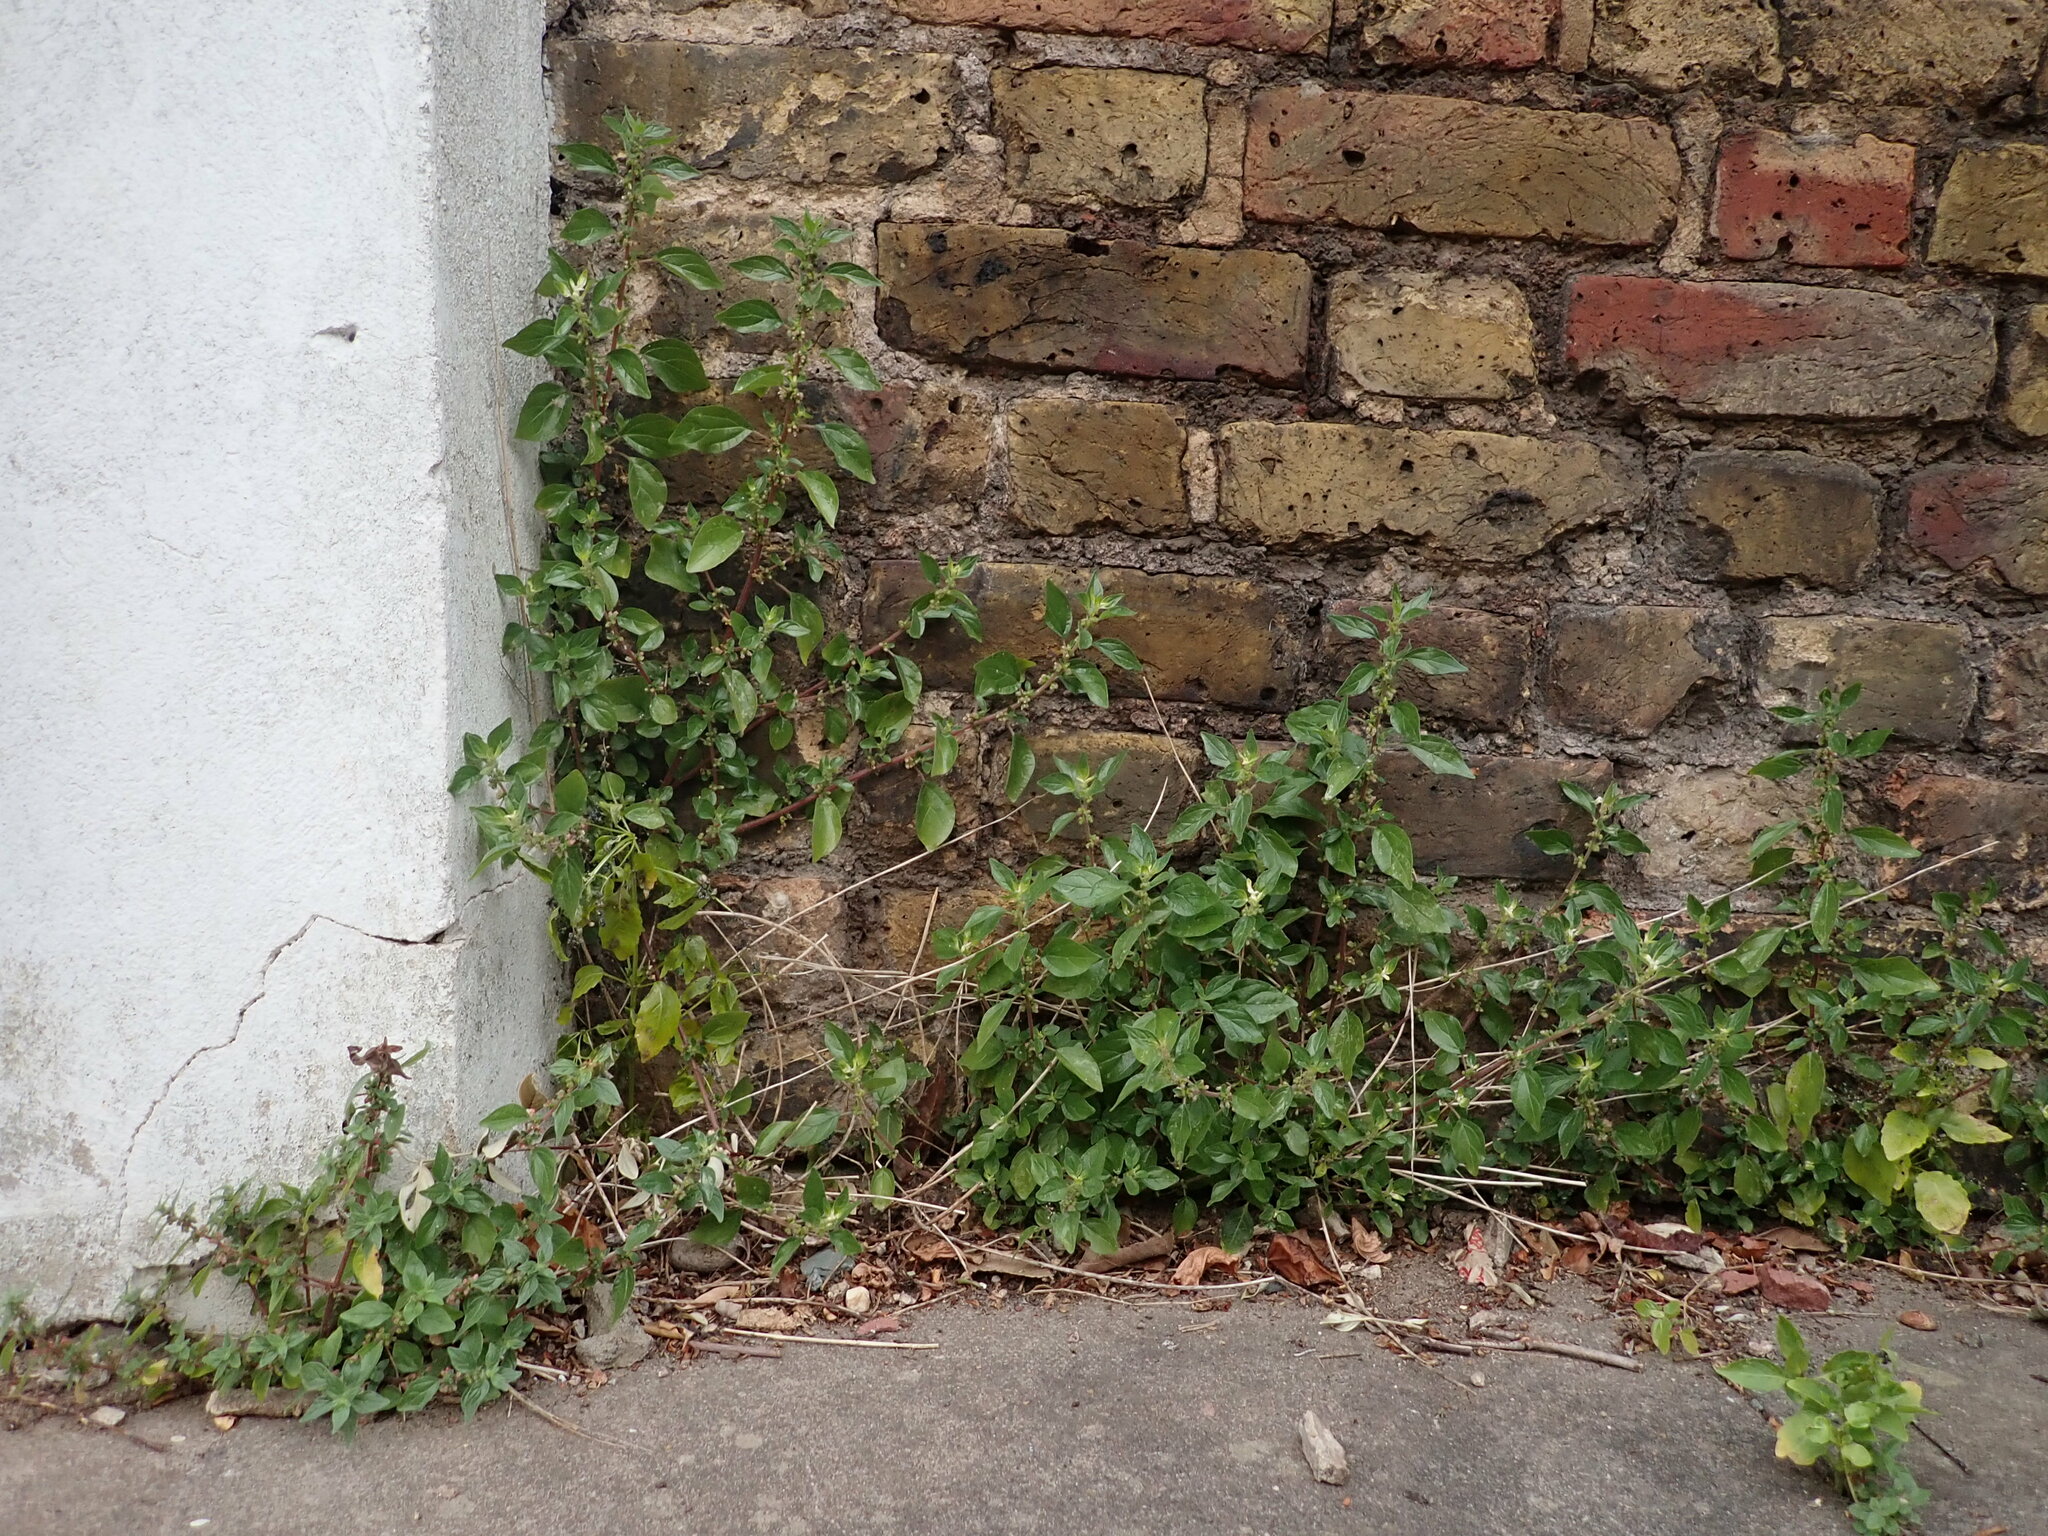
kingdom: Plantae
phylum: Tracheophyta
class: Magnoliopsida
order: Rosales
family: Urticaceae
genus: Parietaria
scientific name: Parietaria judaica
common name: Pellitory-of-the-wall
